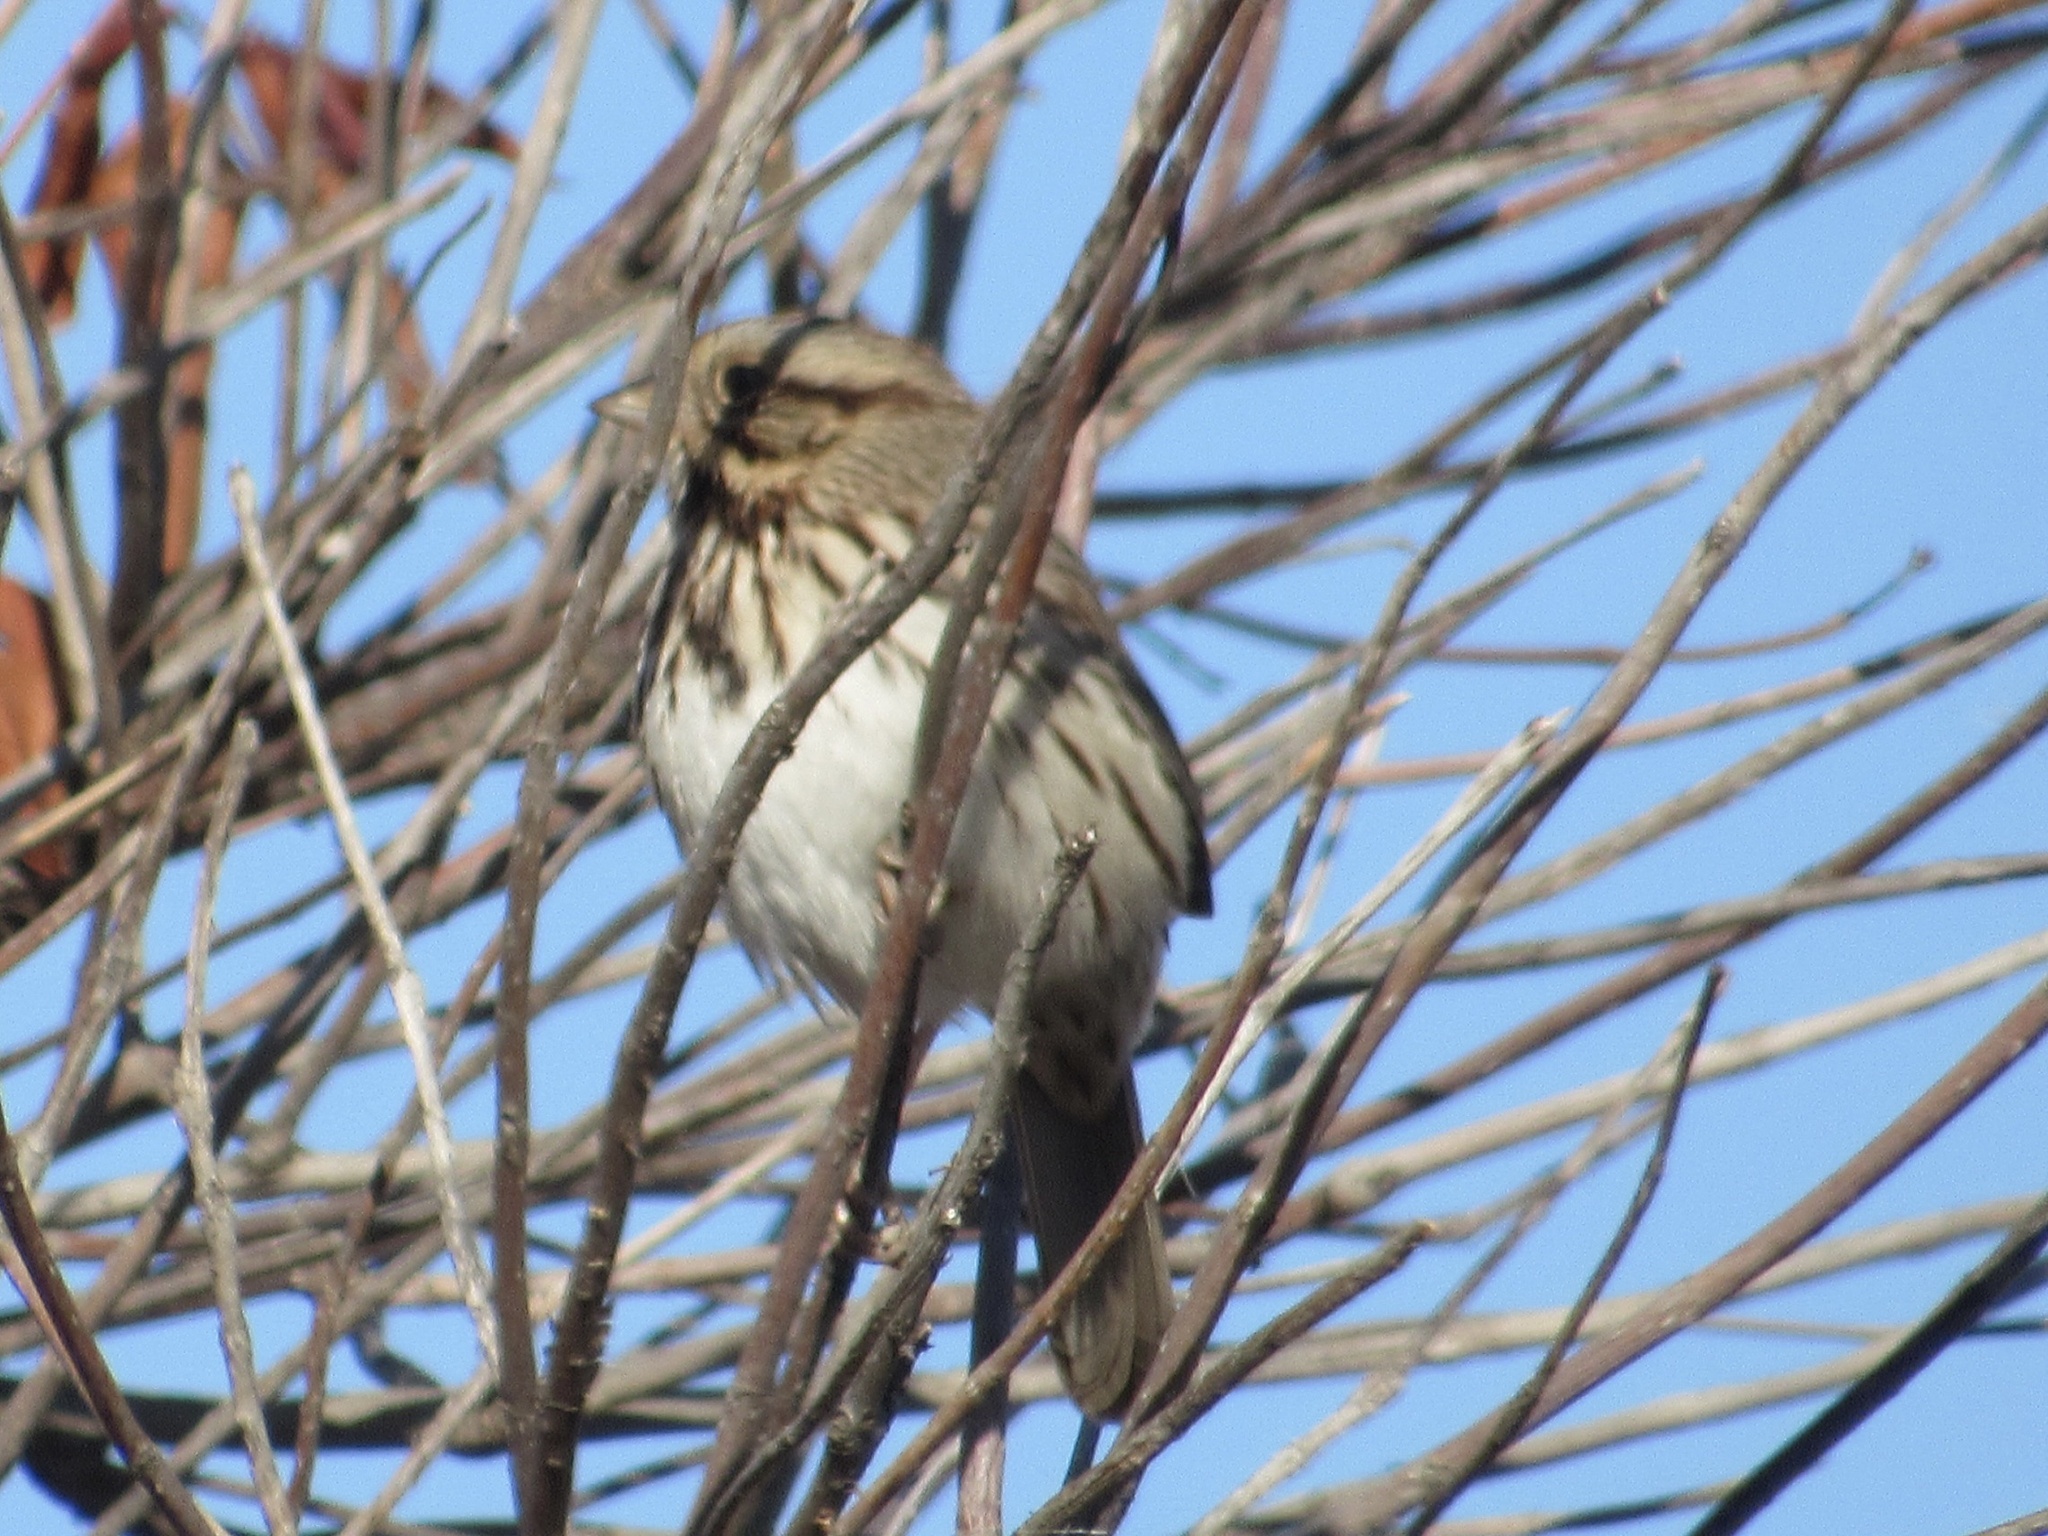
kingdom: Animalia
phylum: Chordata
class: Aves
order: Passeriformes
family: Passerellidae
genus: Melospiza
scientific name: Melospiza melodia
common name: Song sparrow
